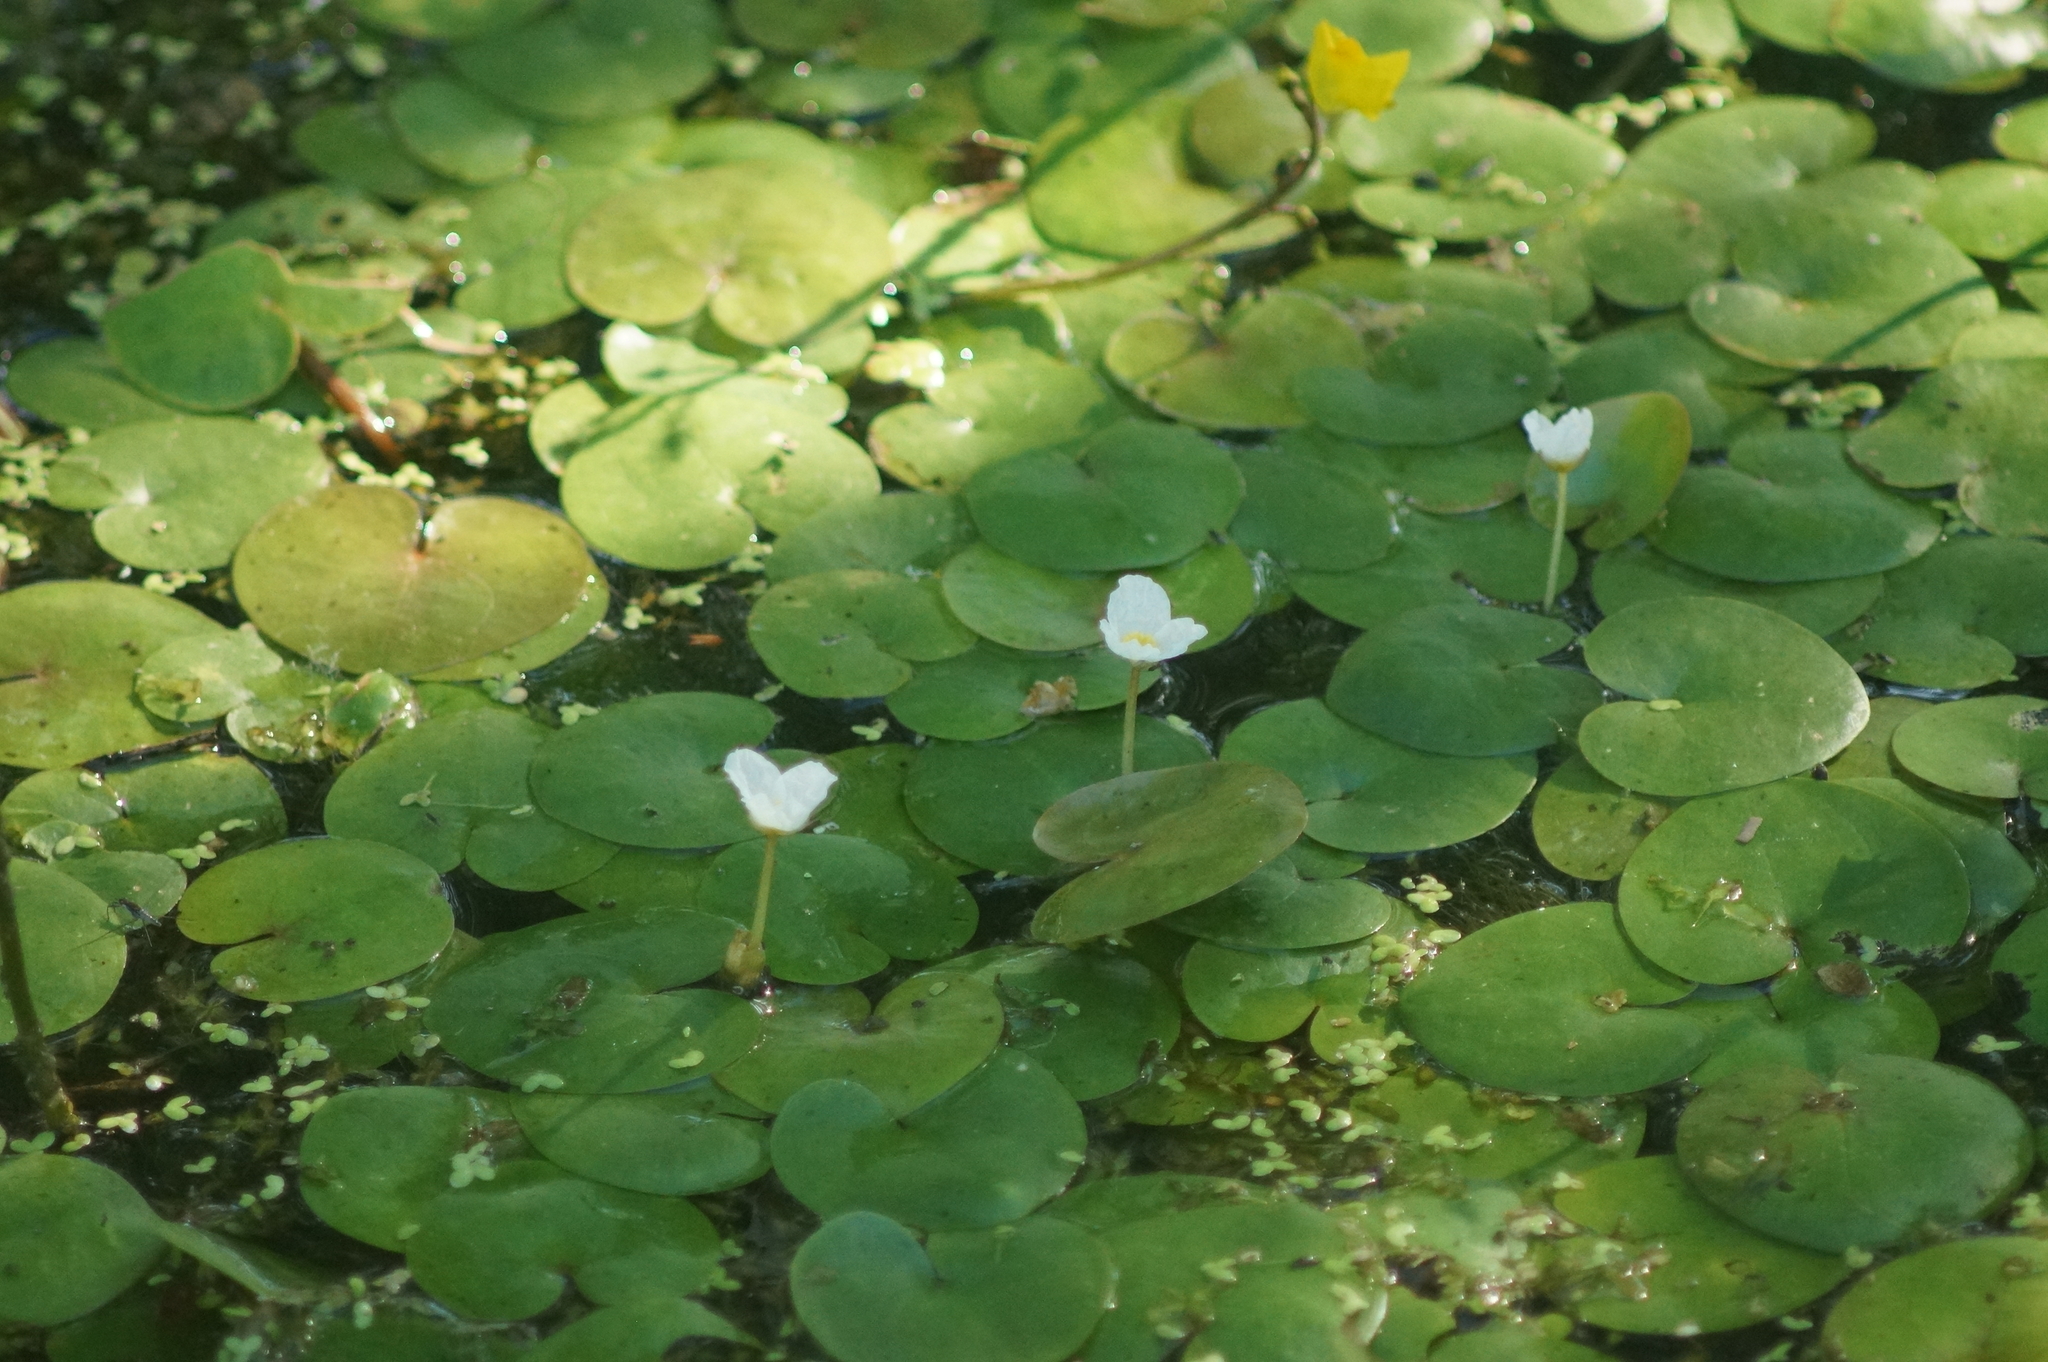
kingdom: Plantae
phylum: Tracheophyta
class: Liliopsida
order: Alismatales
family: Hydrocharitaceae
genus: Hydrocharis
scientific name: Hydrocharis morsus-ranae
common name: Frogbit
